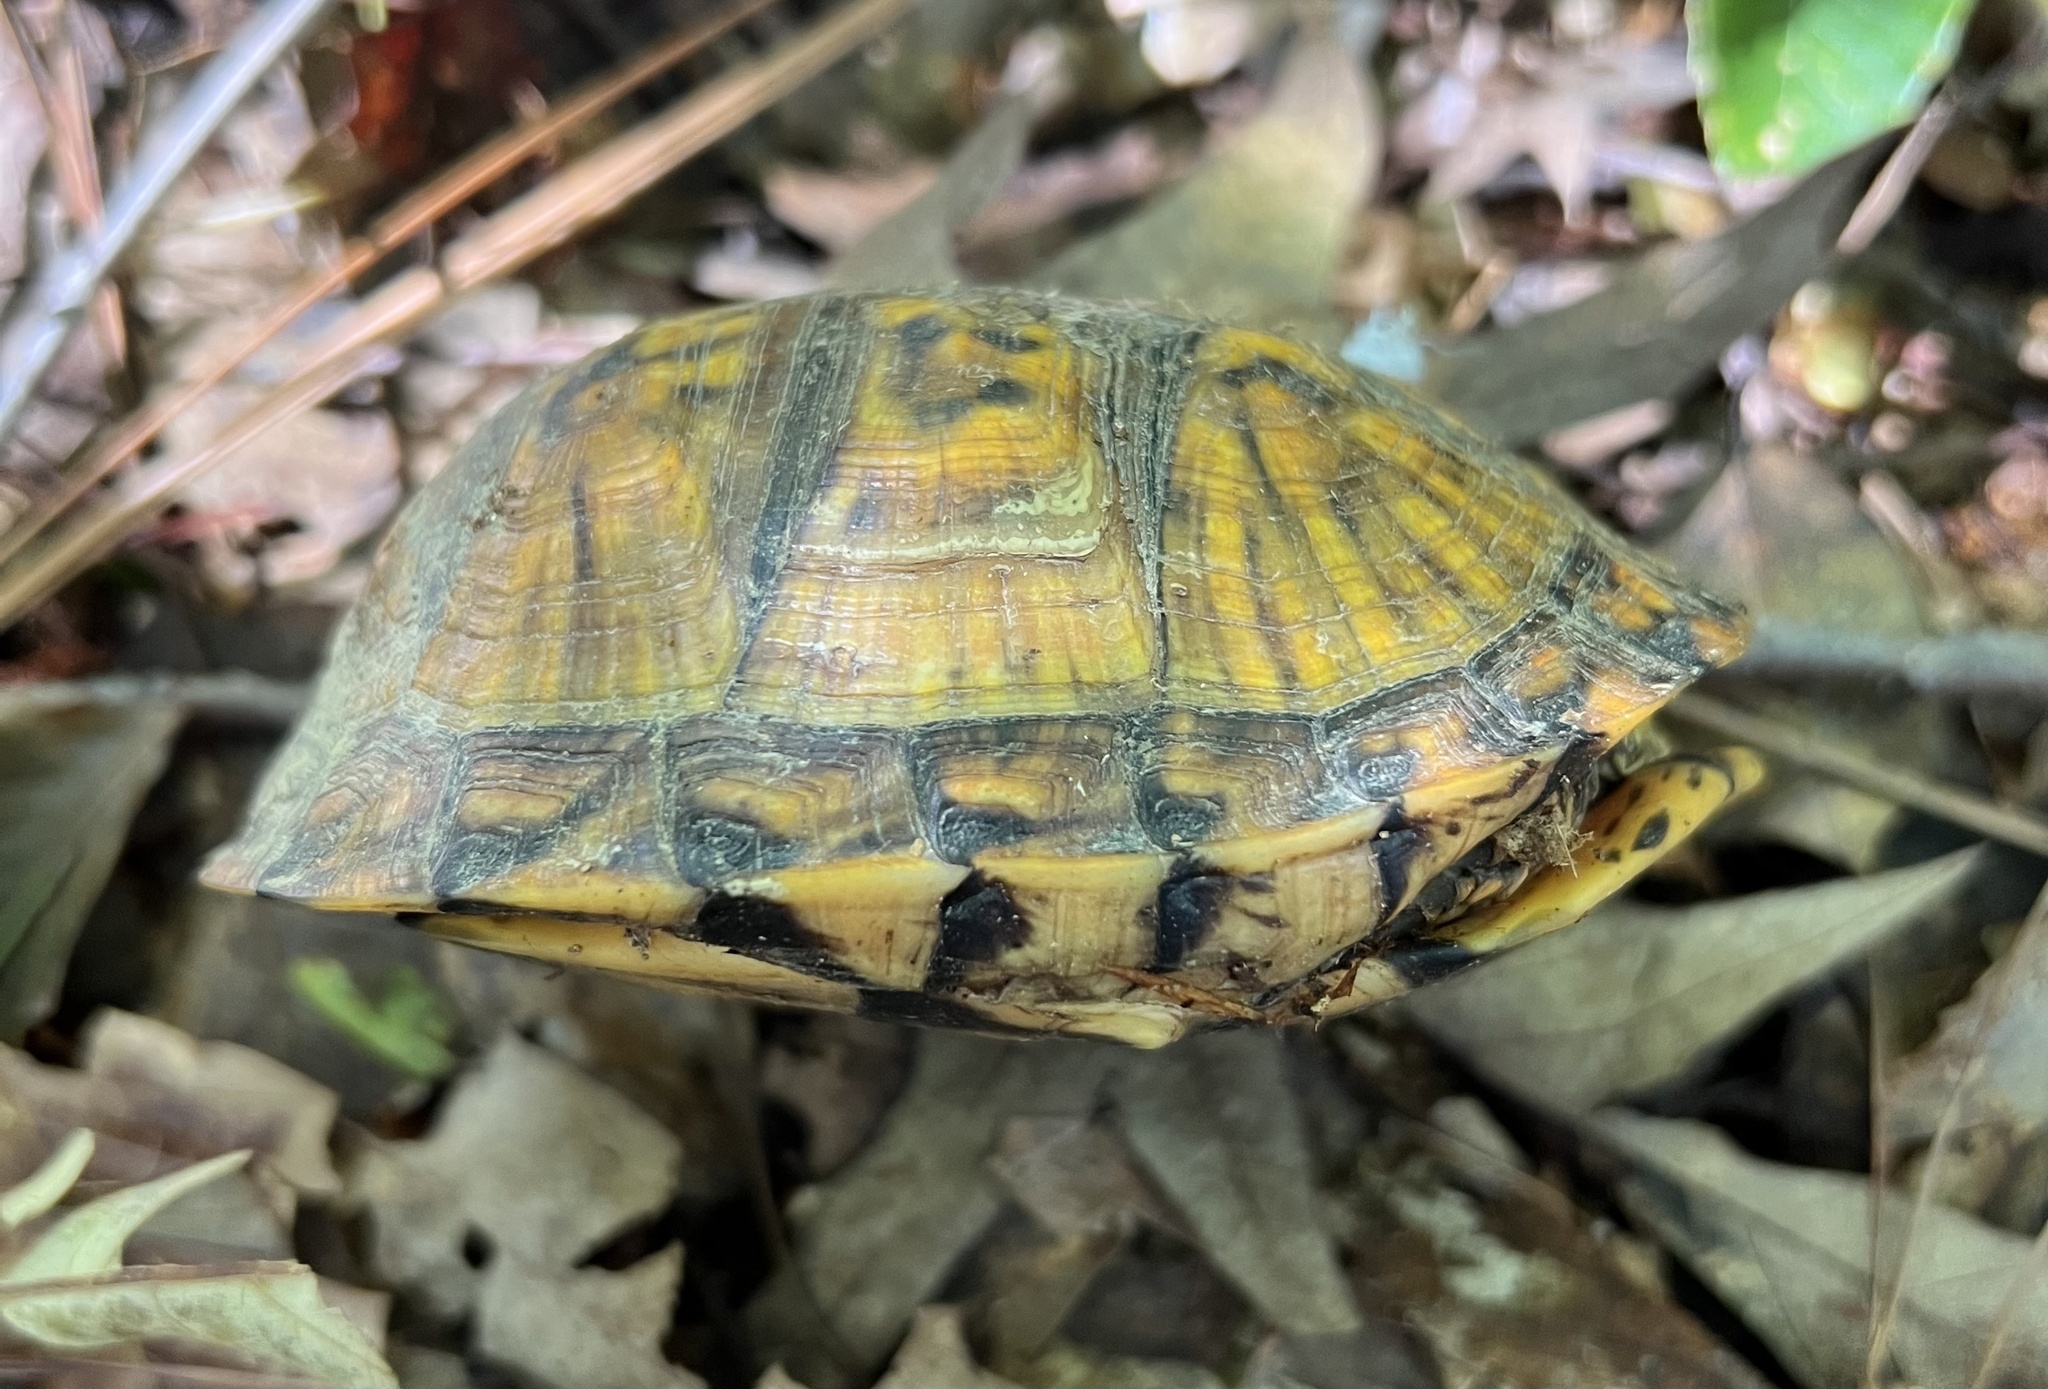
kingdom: Animalia
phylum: Chordata
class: Testudines
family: Emydidae
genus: Terrapene
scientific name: Terrapene carolina
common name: Common box turtle
